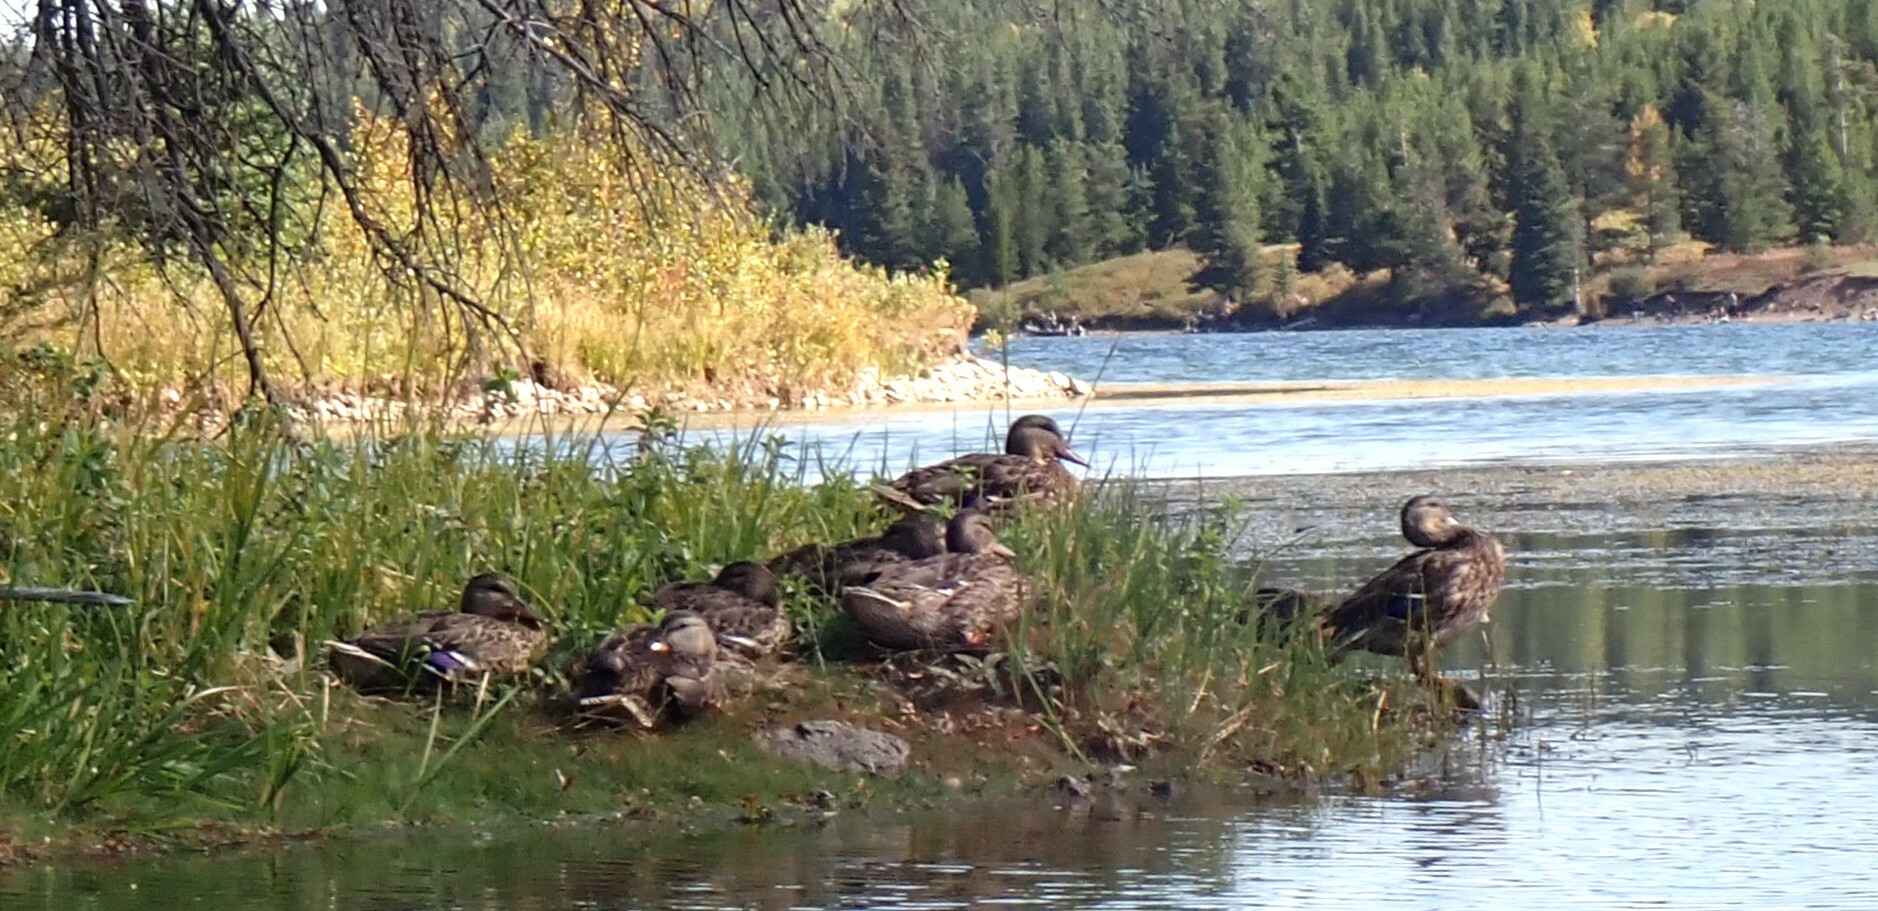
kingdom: Animalia
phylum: Chordata
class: Aves
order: Anseriformes
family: Anatidae
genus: Anas
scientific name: Anas platyrhynchos
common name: Mallard
